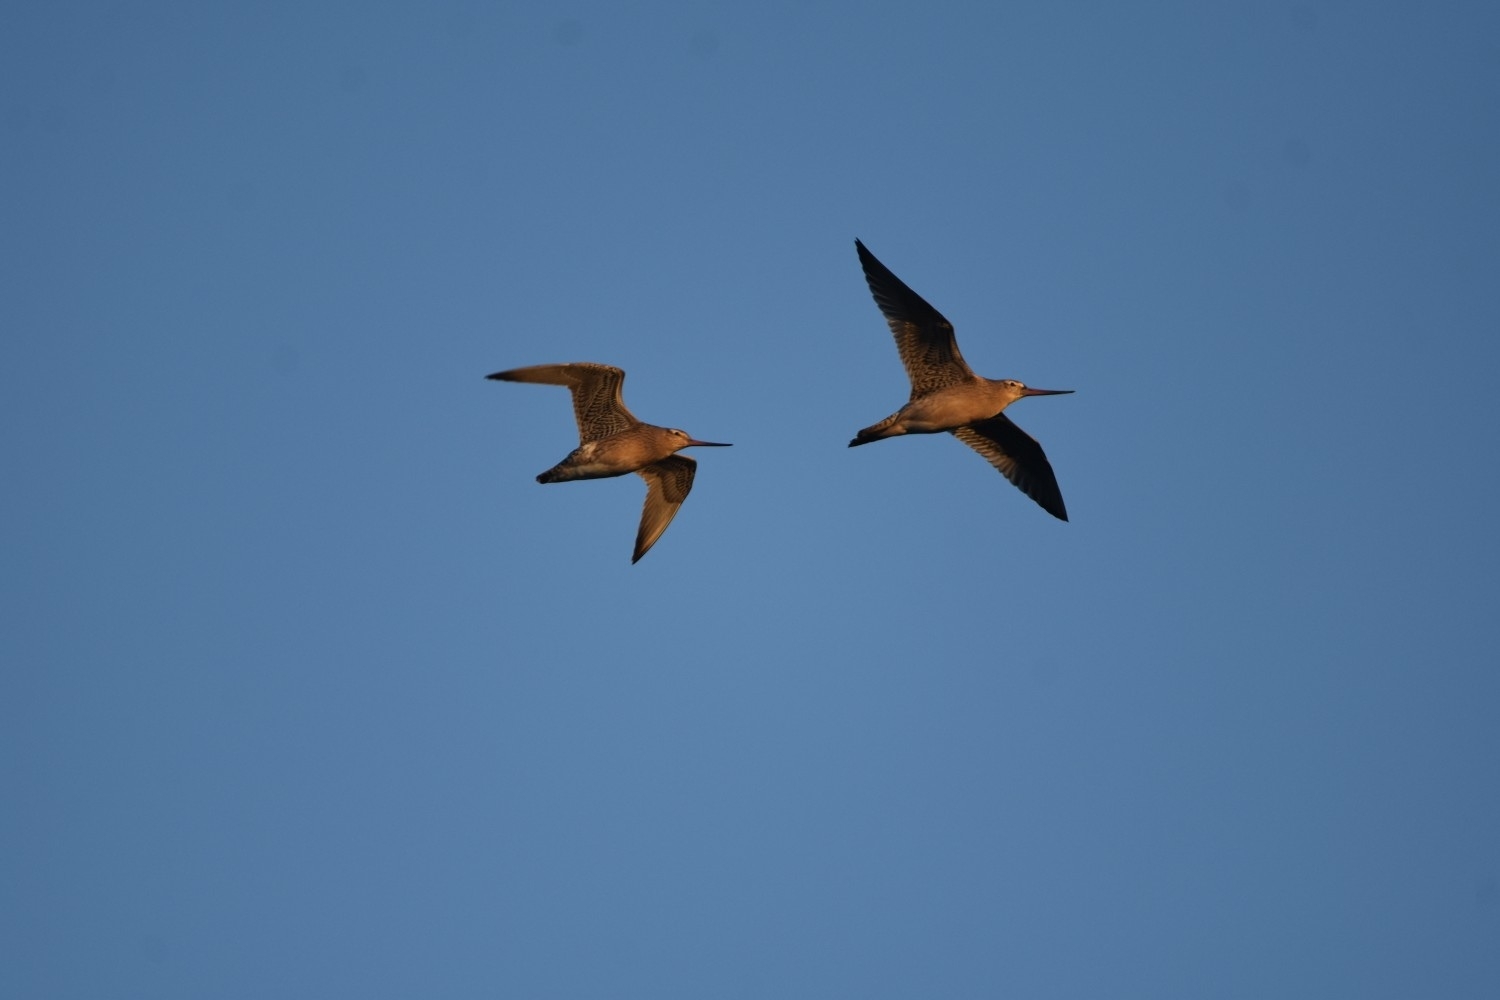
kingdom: Animalia
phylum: Chordata
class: Aves
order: Charadriiformes
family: Scolopacidae
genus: Limosa
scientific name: Limosa lapponica
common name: Bar-tailed godwit
